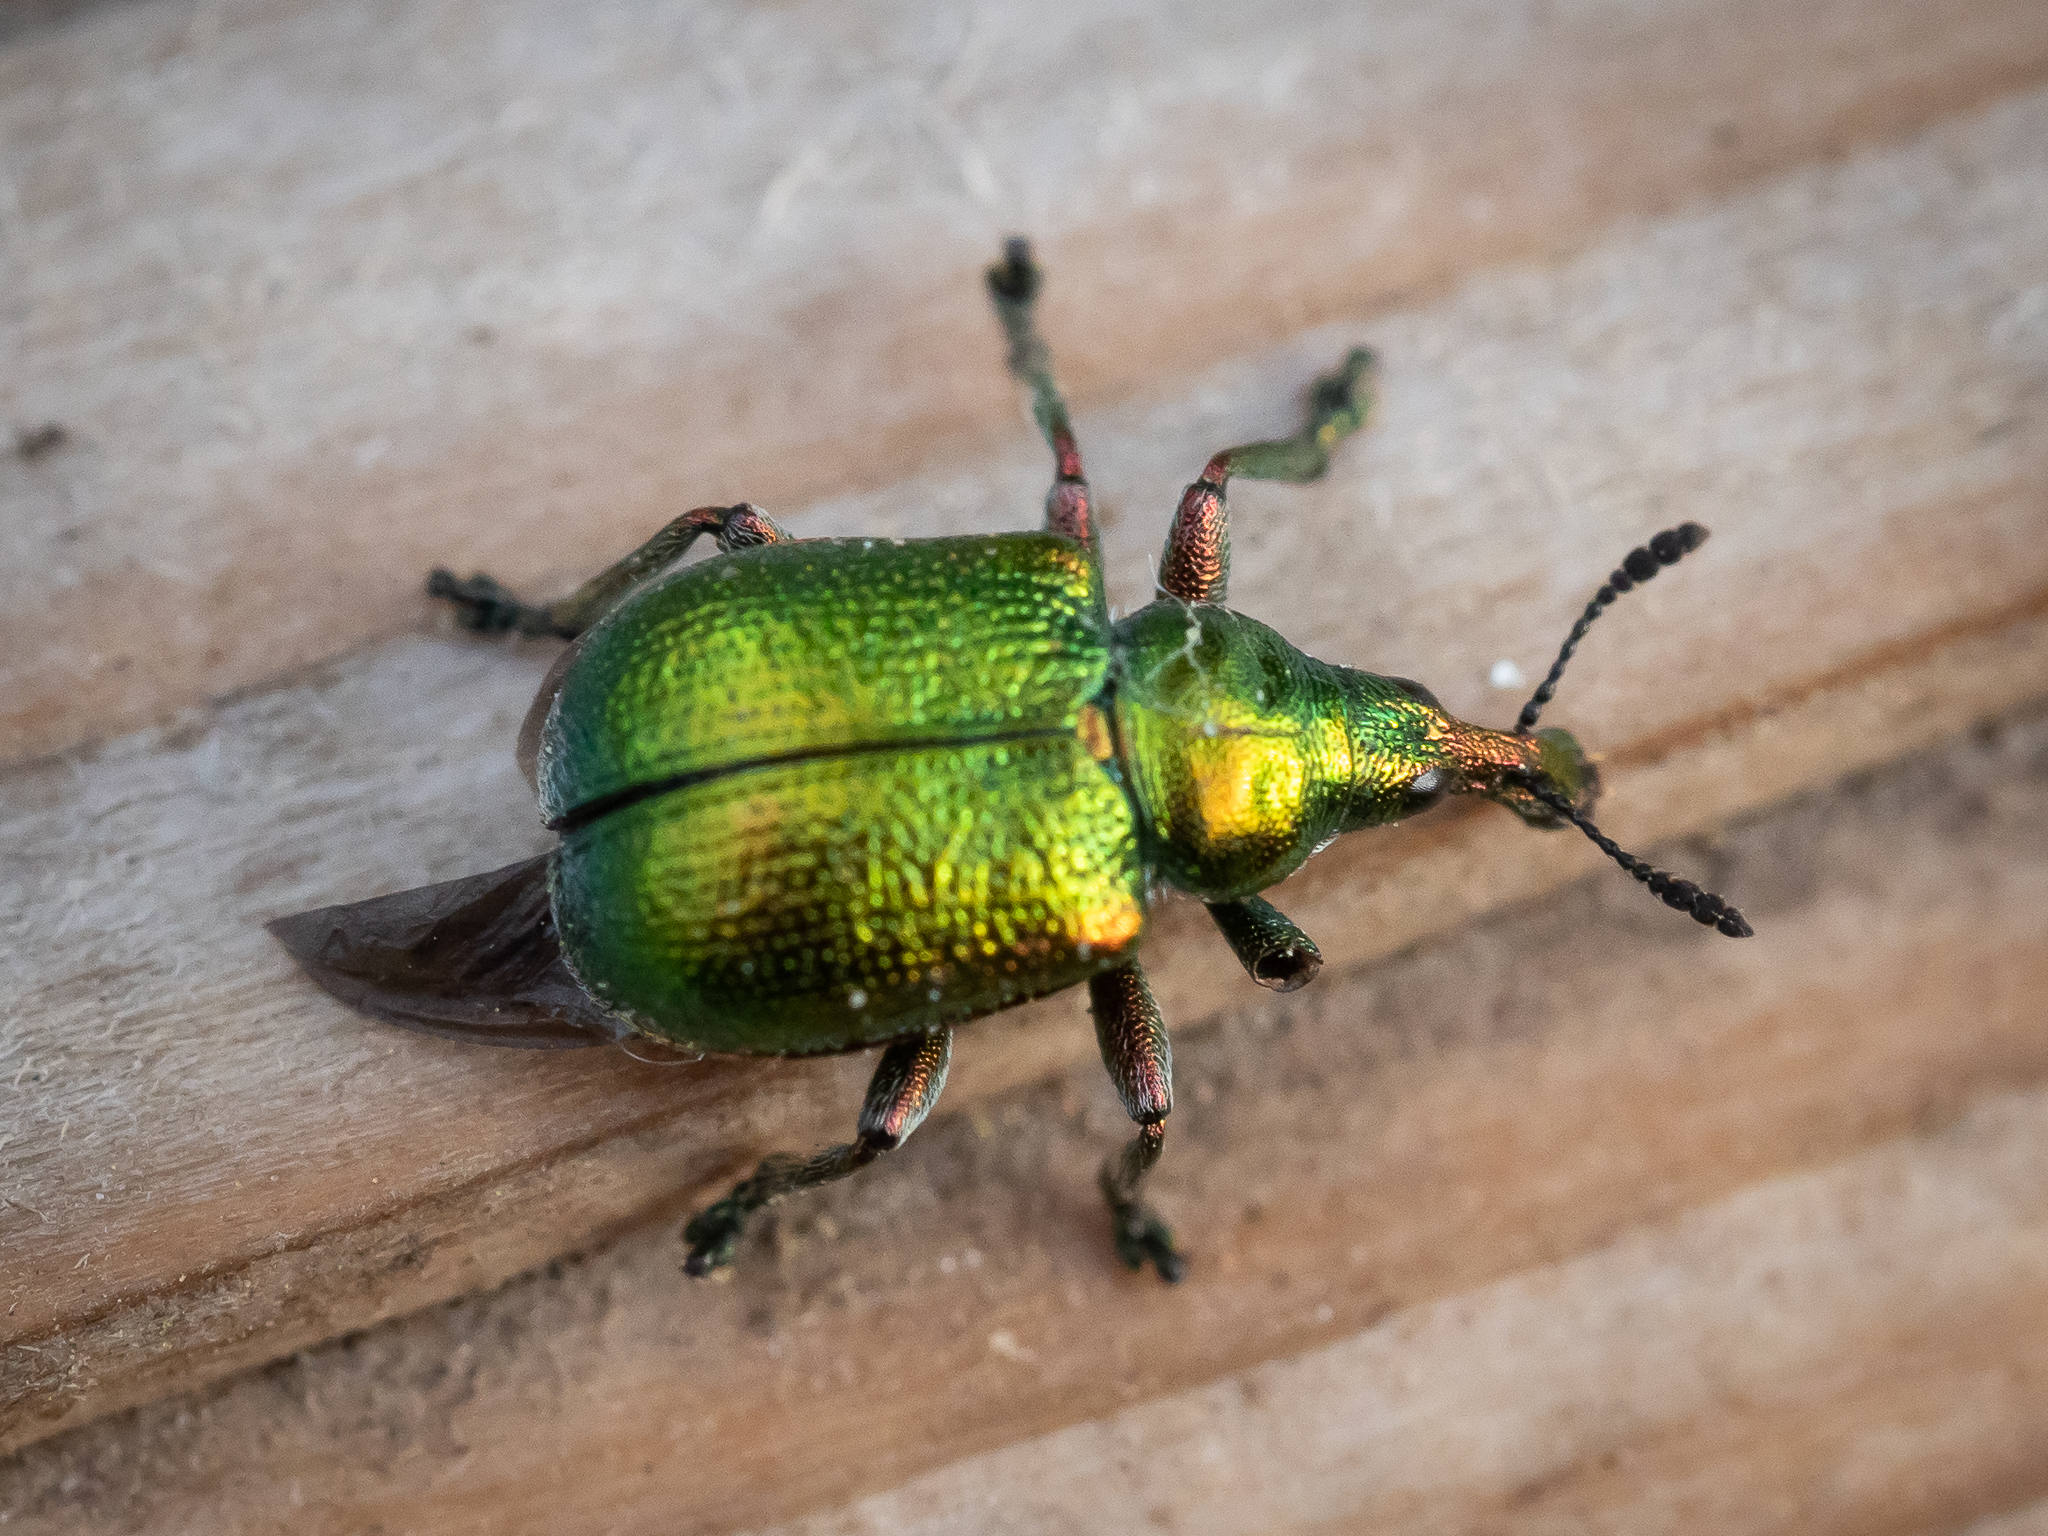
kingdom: Animalia
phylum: Arthropoda
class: Insecta
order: Coleoptera
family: Attelabidae
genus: Byctiscus
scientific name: Byctiscus betulae
